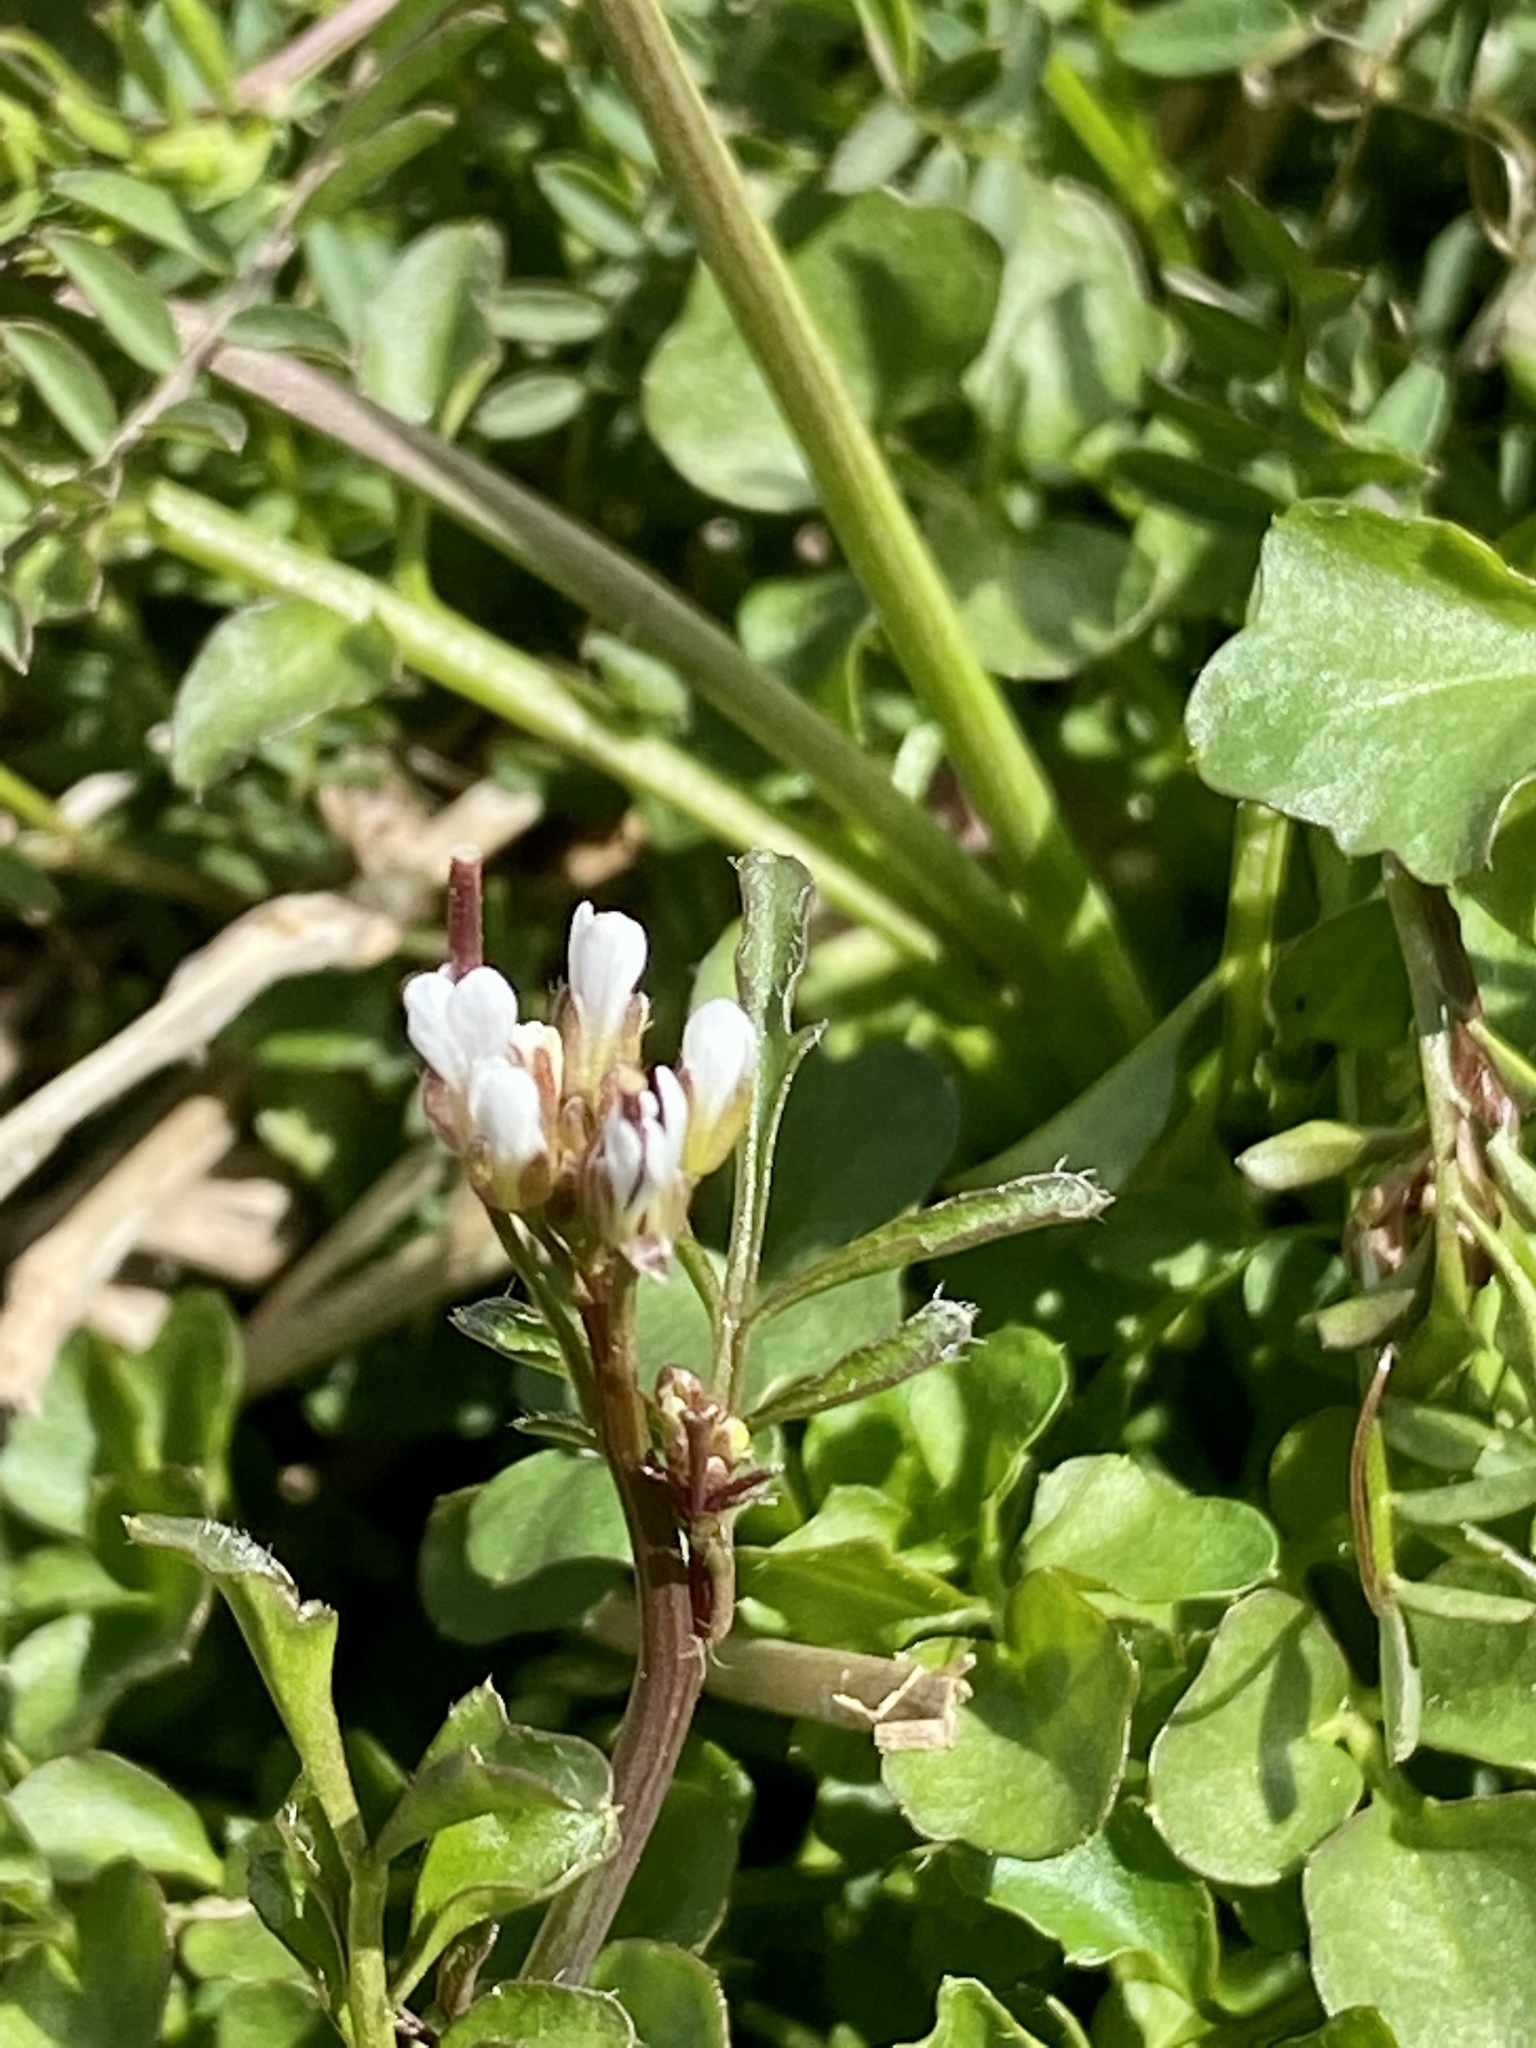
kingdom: Plantae
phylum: Tracheophyta
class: Magnoliopsida
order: Brassicales
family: Brassicaceae
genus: Cardamine
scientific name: Cardamine hirsuta
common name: Hairy bittercress
